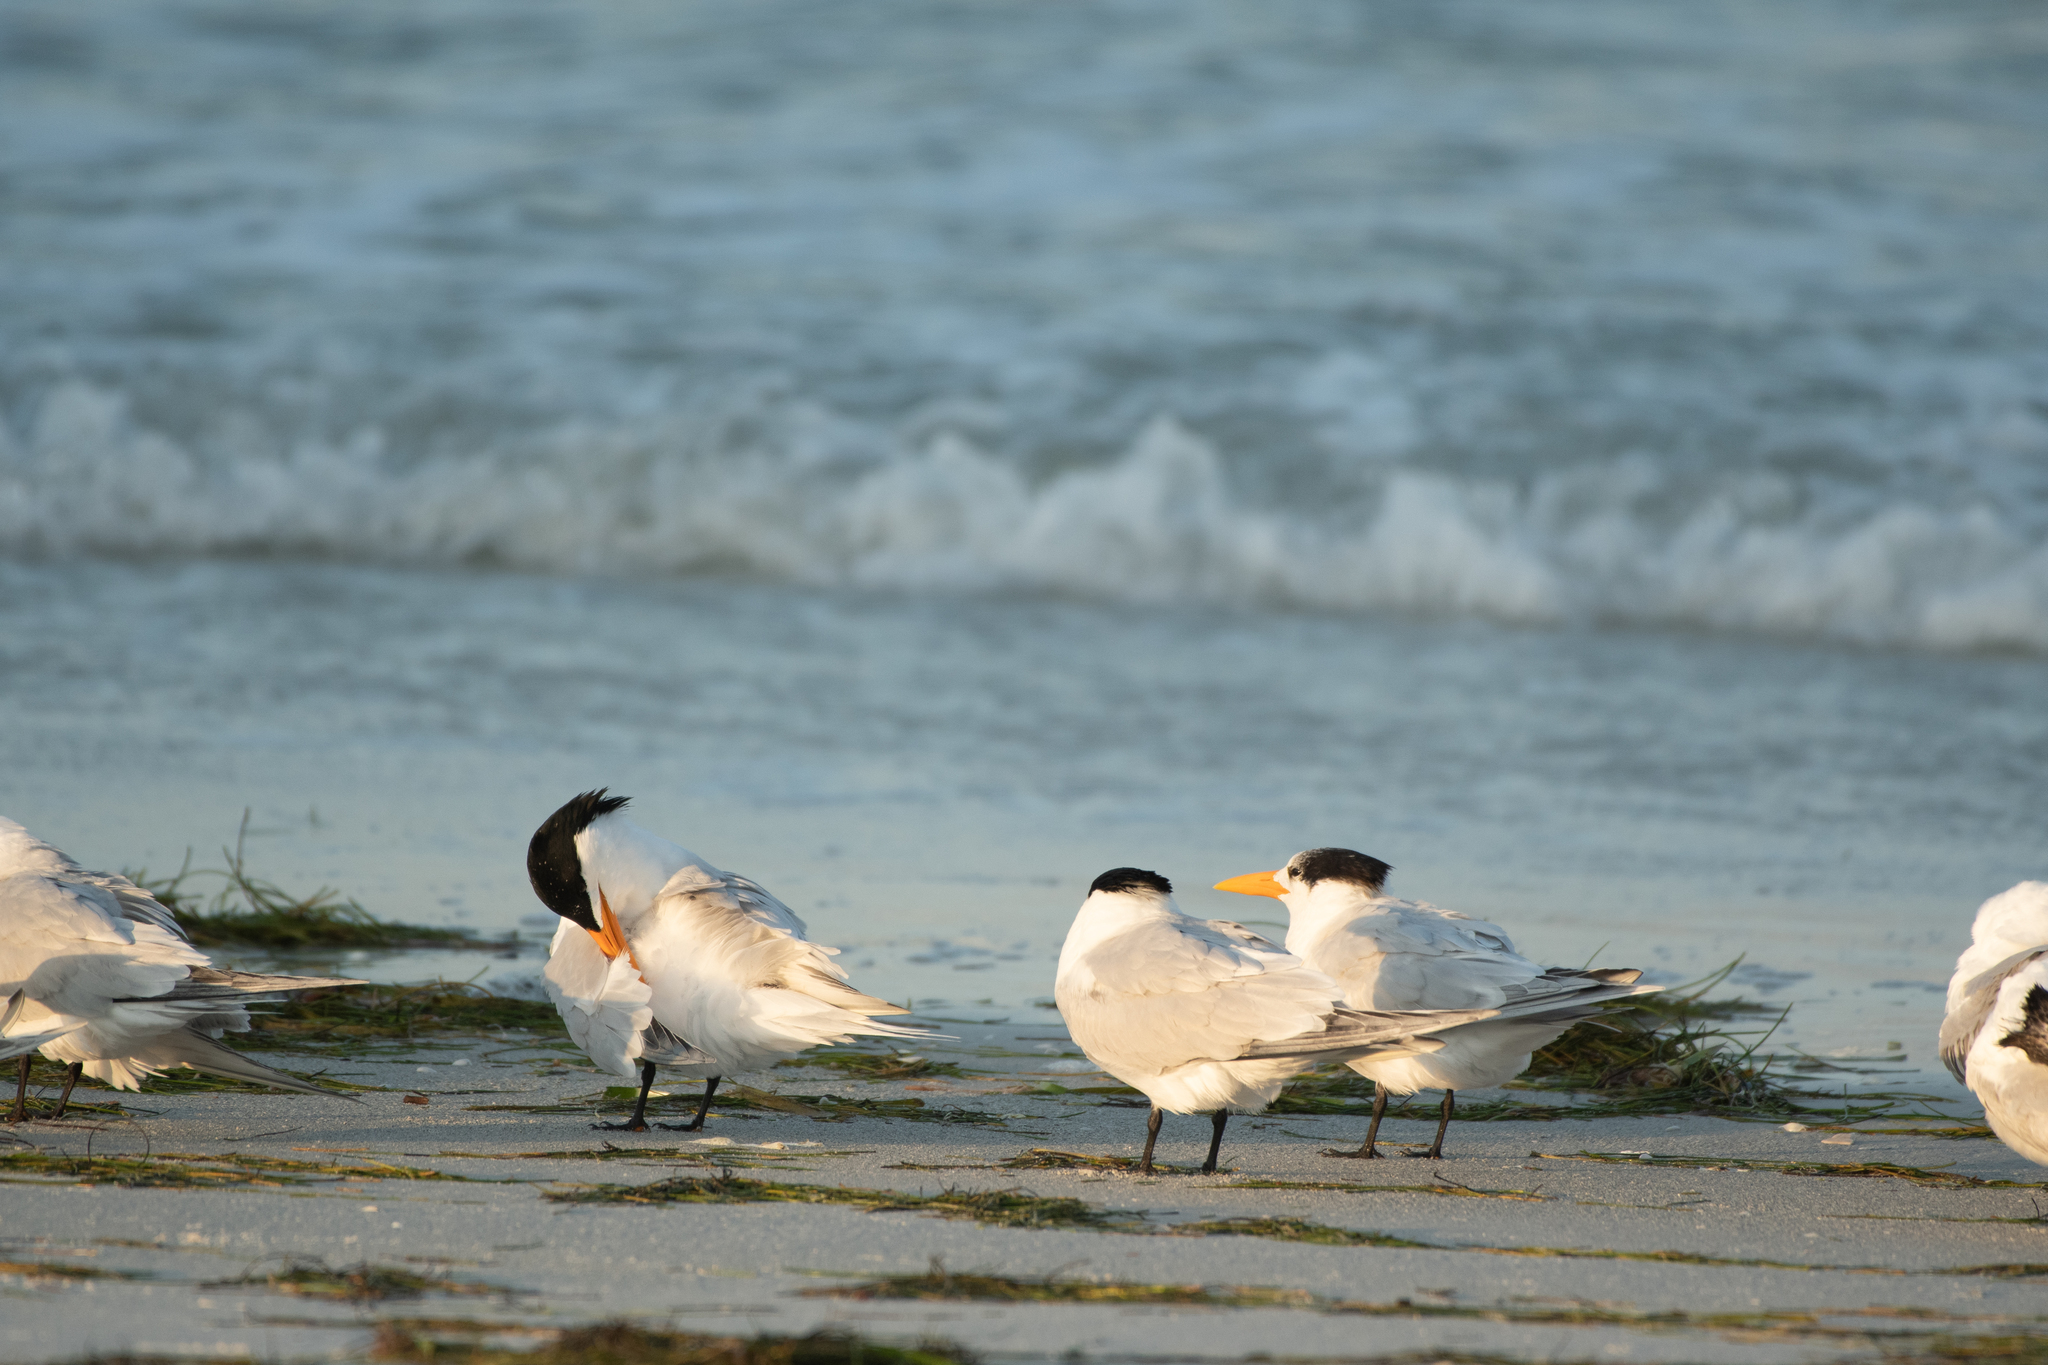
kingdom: Animalia
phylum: Chordata
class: Aves
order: Charadriiformes
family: Laridae
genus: Thalasseus
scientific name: Thalasseus maximus
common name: Royal tern
